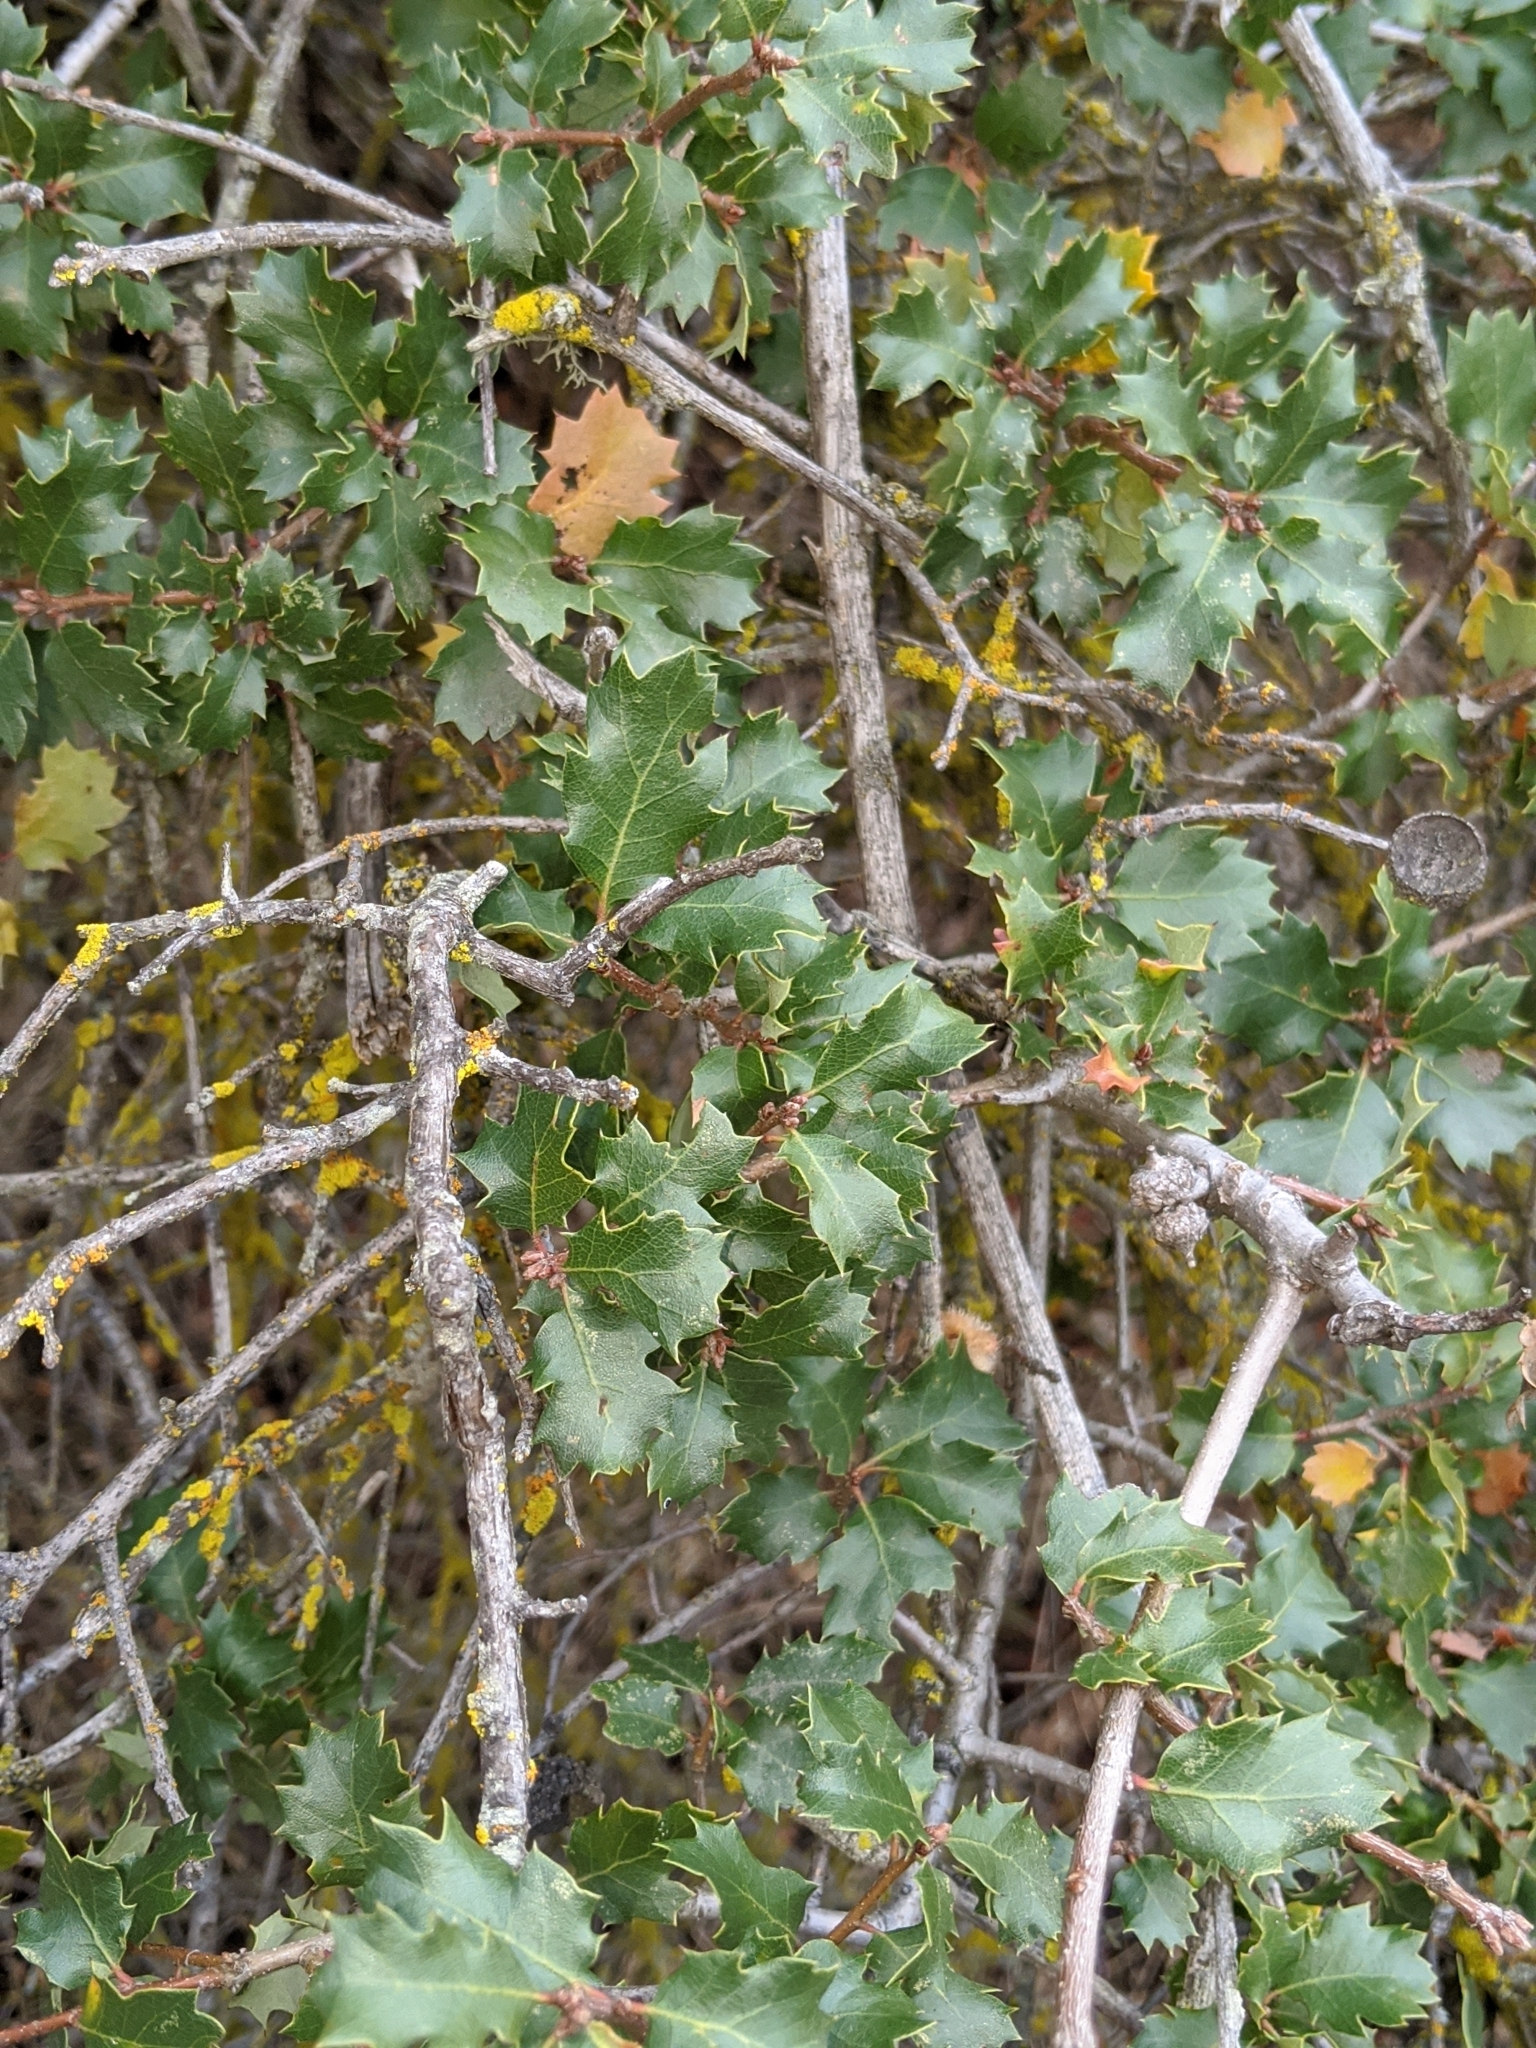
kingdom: Plantae
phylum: Tracheophyta
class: Magnoliopsida
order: Fagales
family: Fagaceae
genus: Quercus
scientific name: Quercus berberidifolia
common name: California scrub oak
